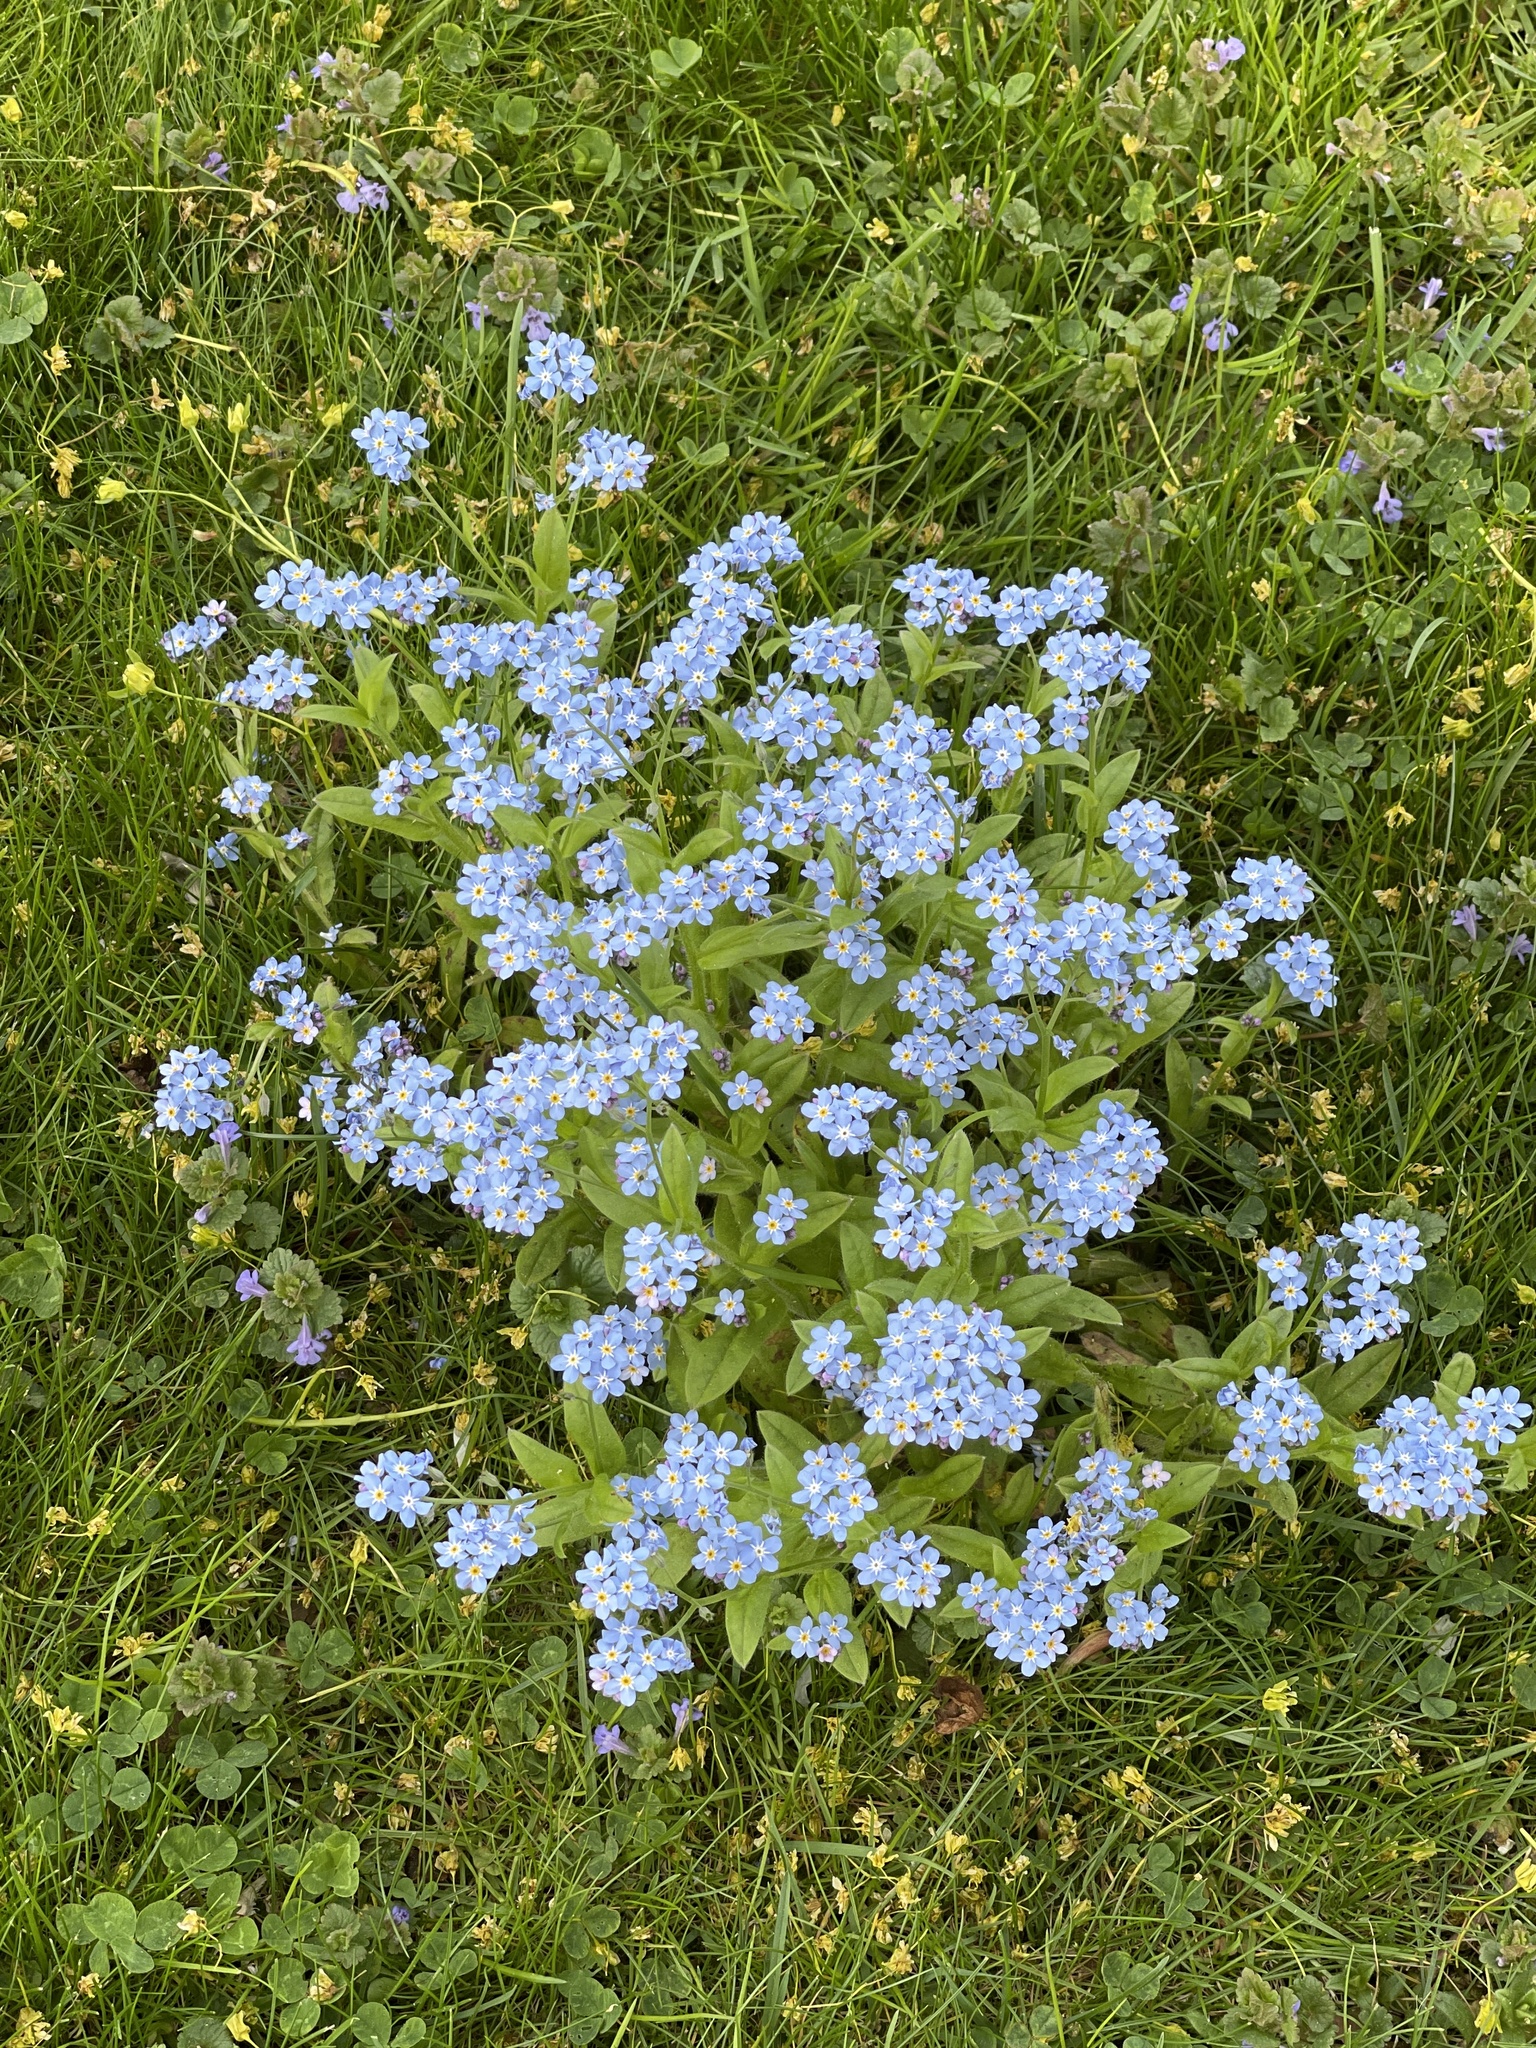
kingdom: Plantae
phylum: Tracheophyta
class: Magnoliopsida
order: Boraginales
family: Boraginaceae
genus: Myosotis
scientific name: Myosotis sylvatica
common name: Wood forget-me-not
